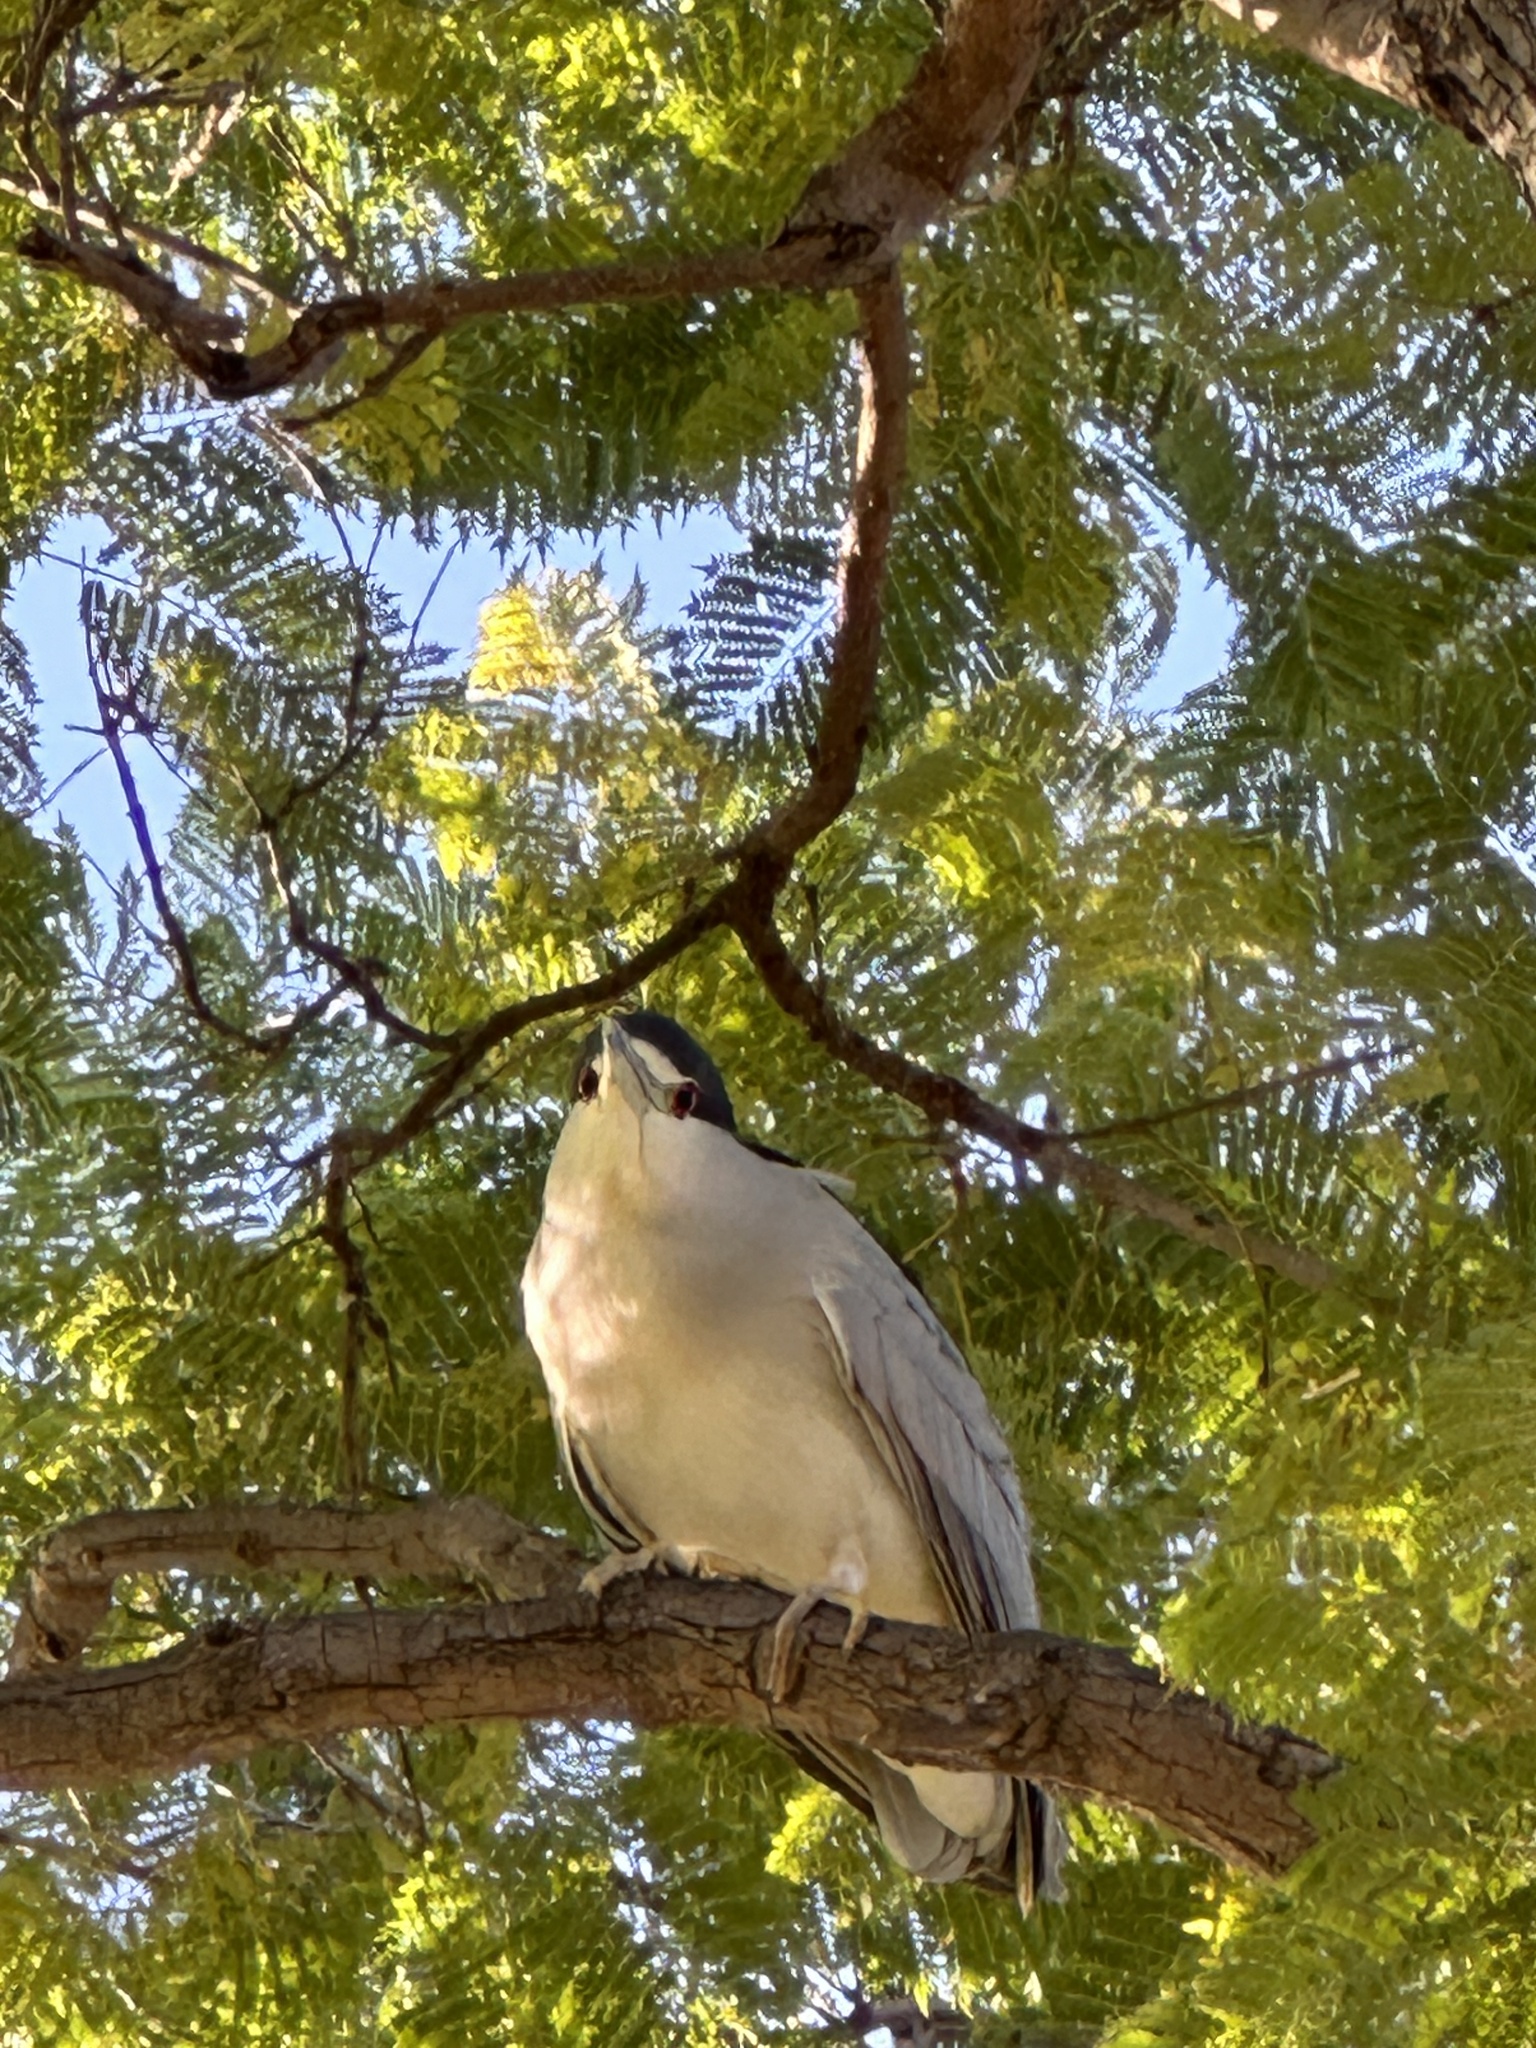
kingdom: Animalia
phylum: Chordata
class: Aves
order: Pelecaniformes
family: Ardeidae
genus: Nycticorax
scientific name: Nycticorax nycticorax
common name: Black-crowned night heron
